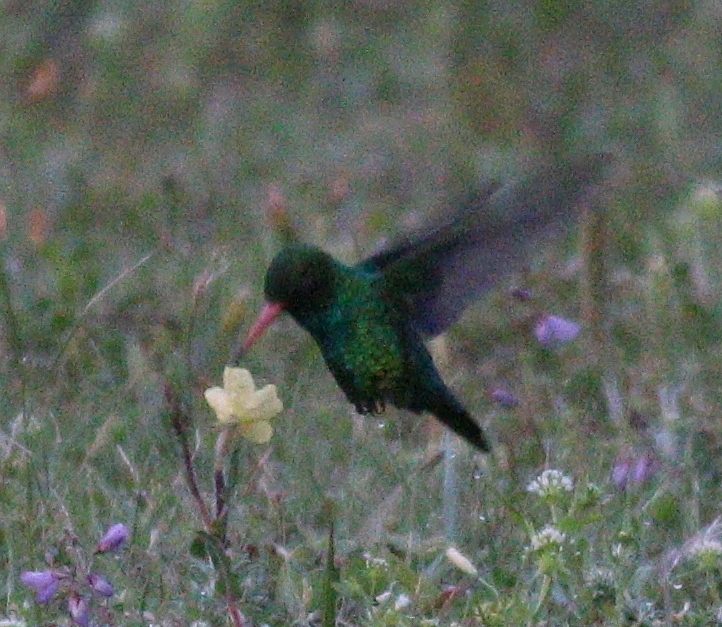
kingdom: Animalia
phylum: Chordata
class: Aves
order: Apodiformes
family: Trochilidae
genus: Chlorostilbon
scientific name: Chlorostilbon lucidus
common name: Glittering-bellied emerald
